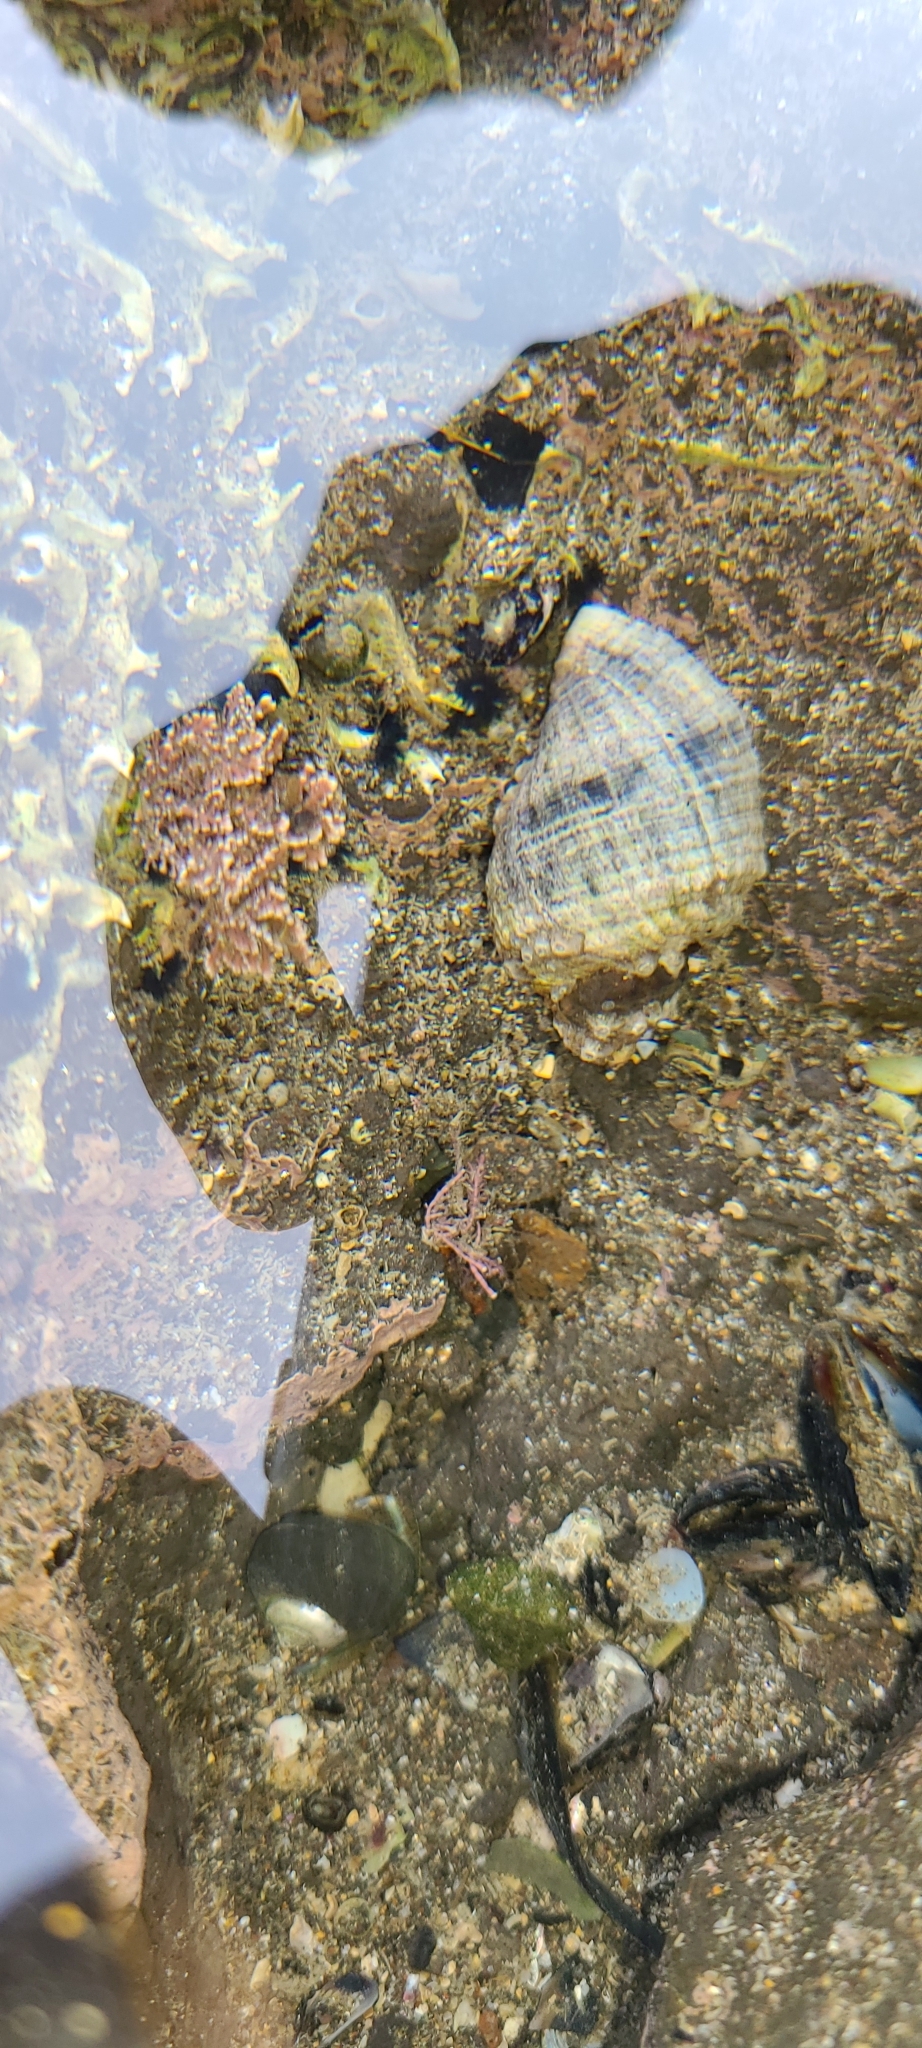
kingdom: Animalia
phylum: Mollusca
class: Gastropoda
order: Neogastropoda
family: Muricidae
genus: Haustrum
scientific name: Haustrum haustorium
